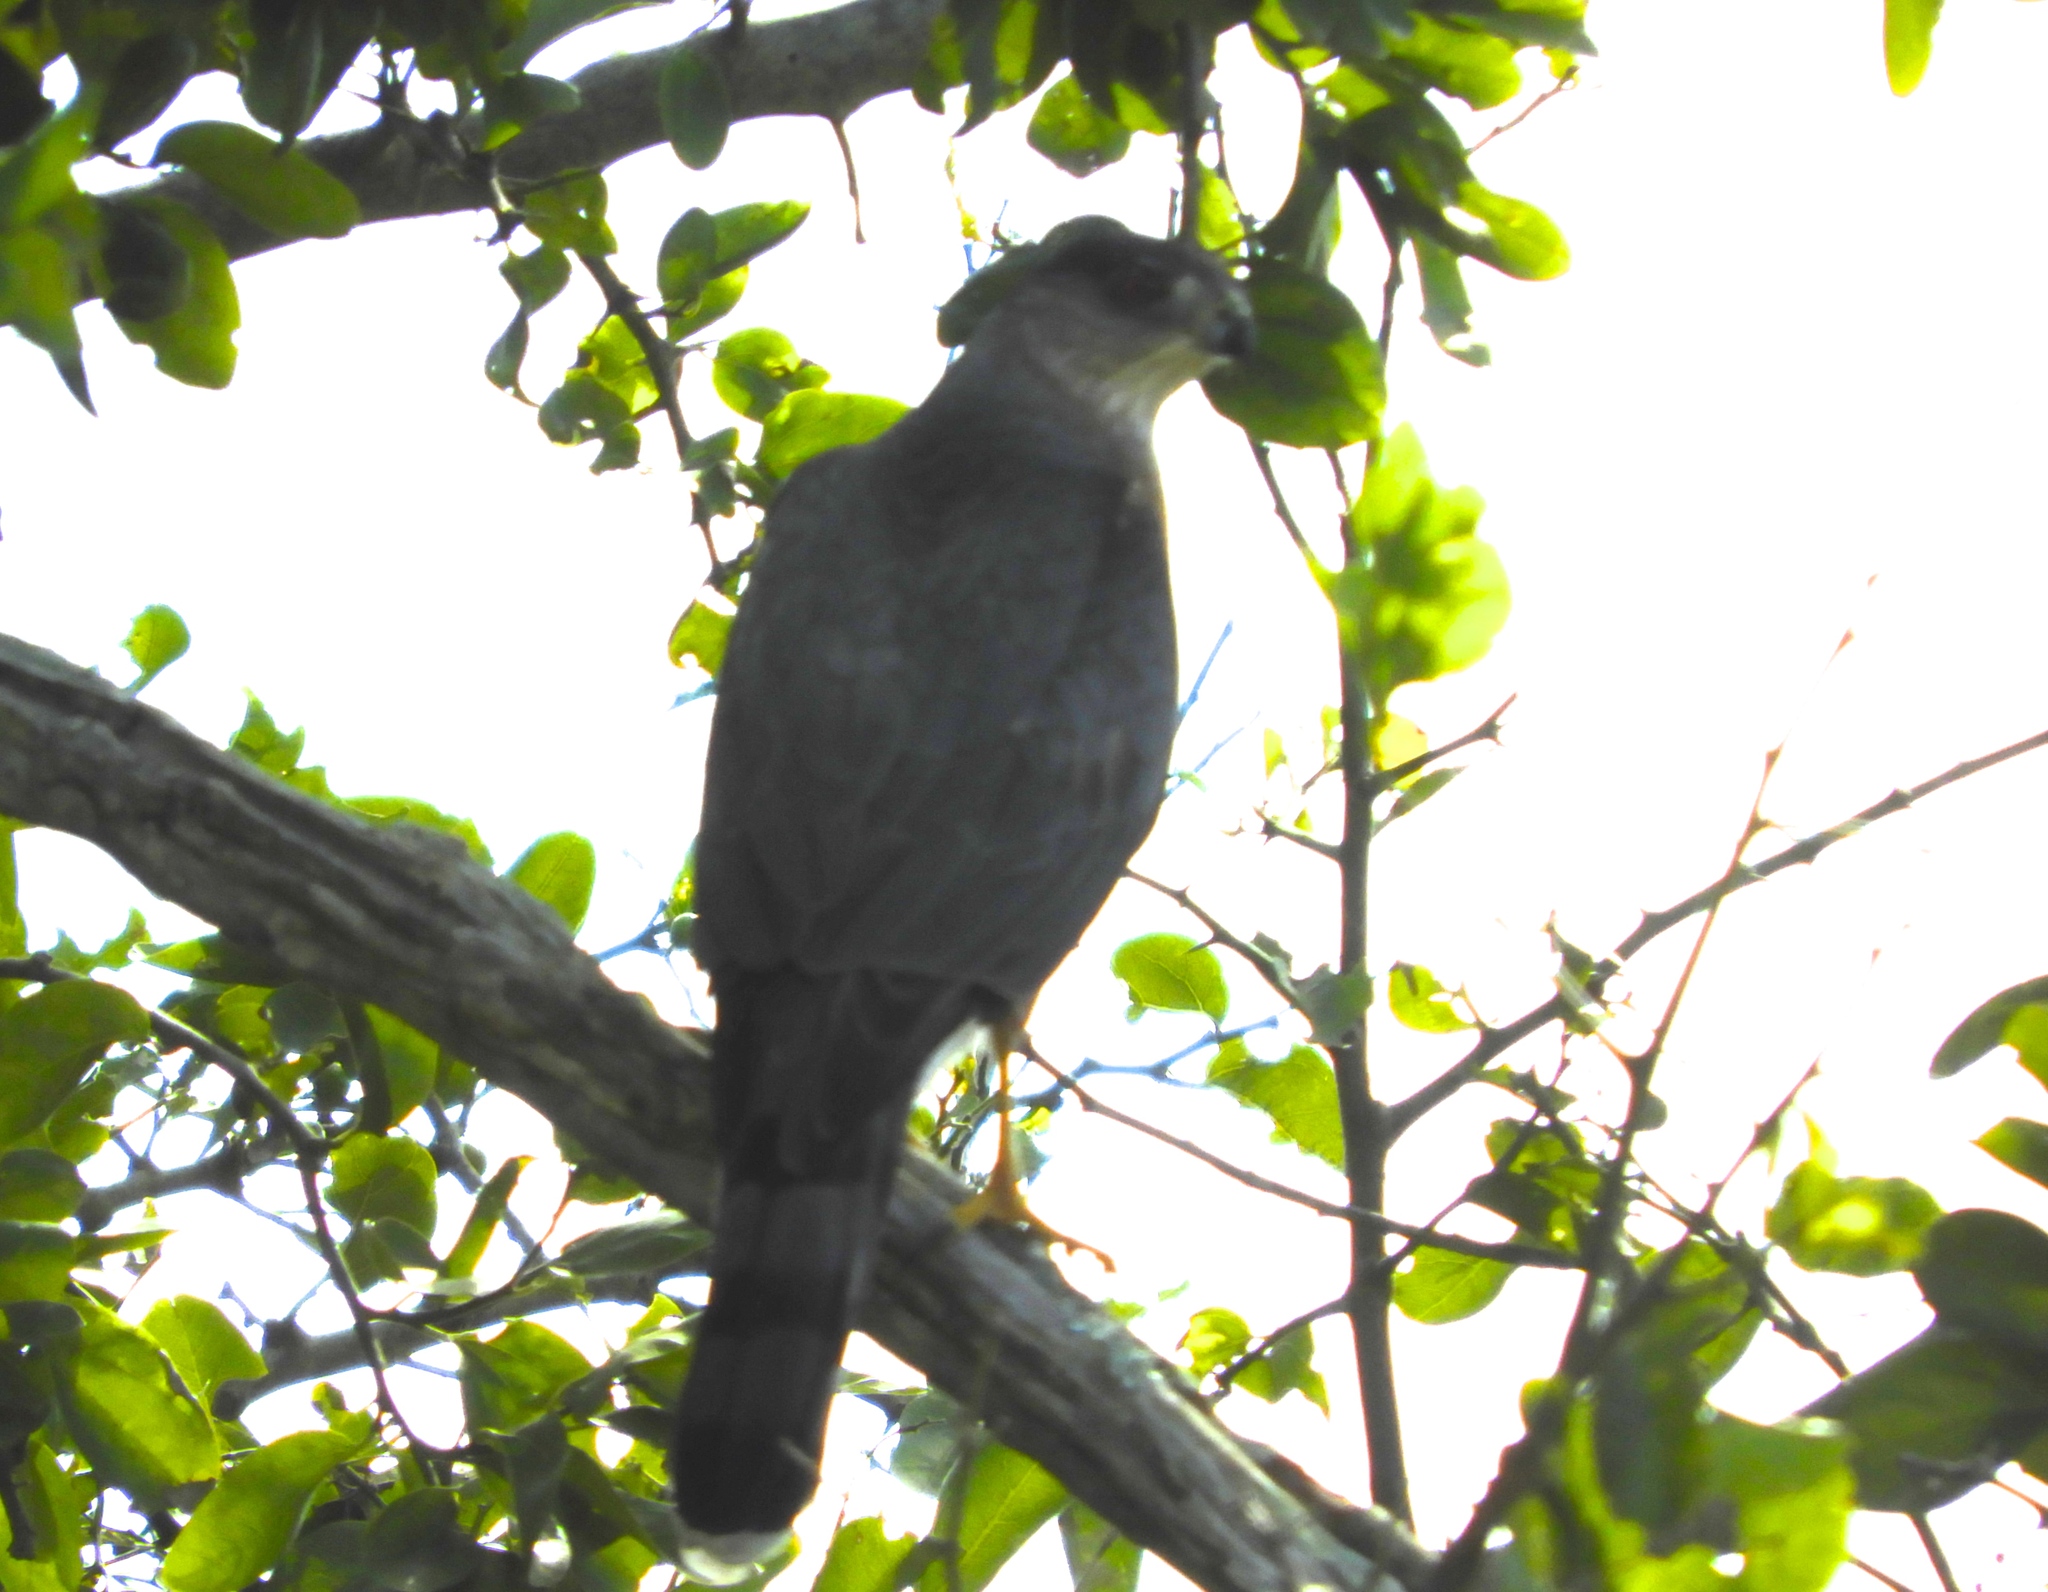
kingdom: Animalia
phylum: Chordata
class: Aves
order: Accipitriformes
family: Accipitridae
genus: Accipiter
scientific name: Accipiter cooperii
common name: Cooper's hawk
